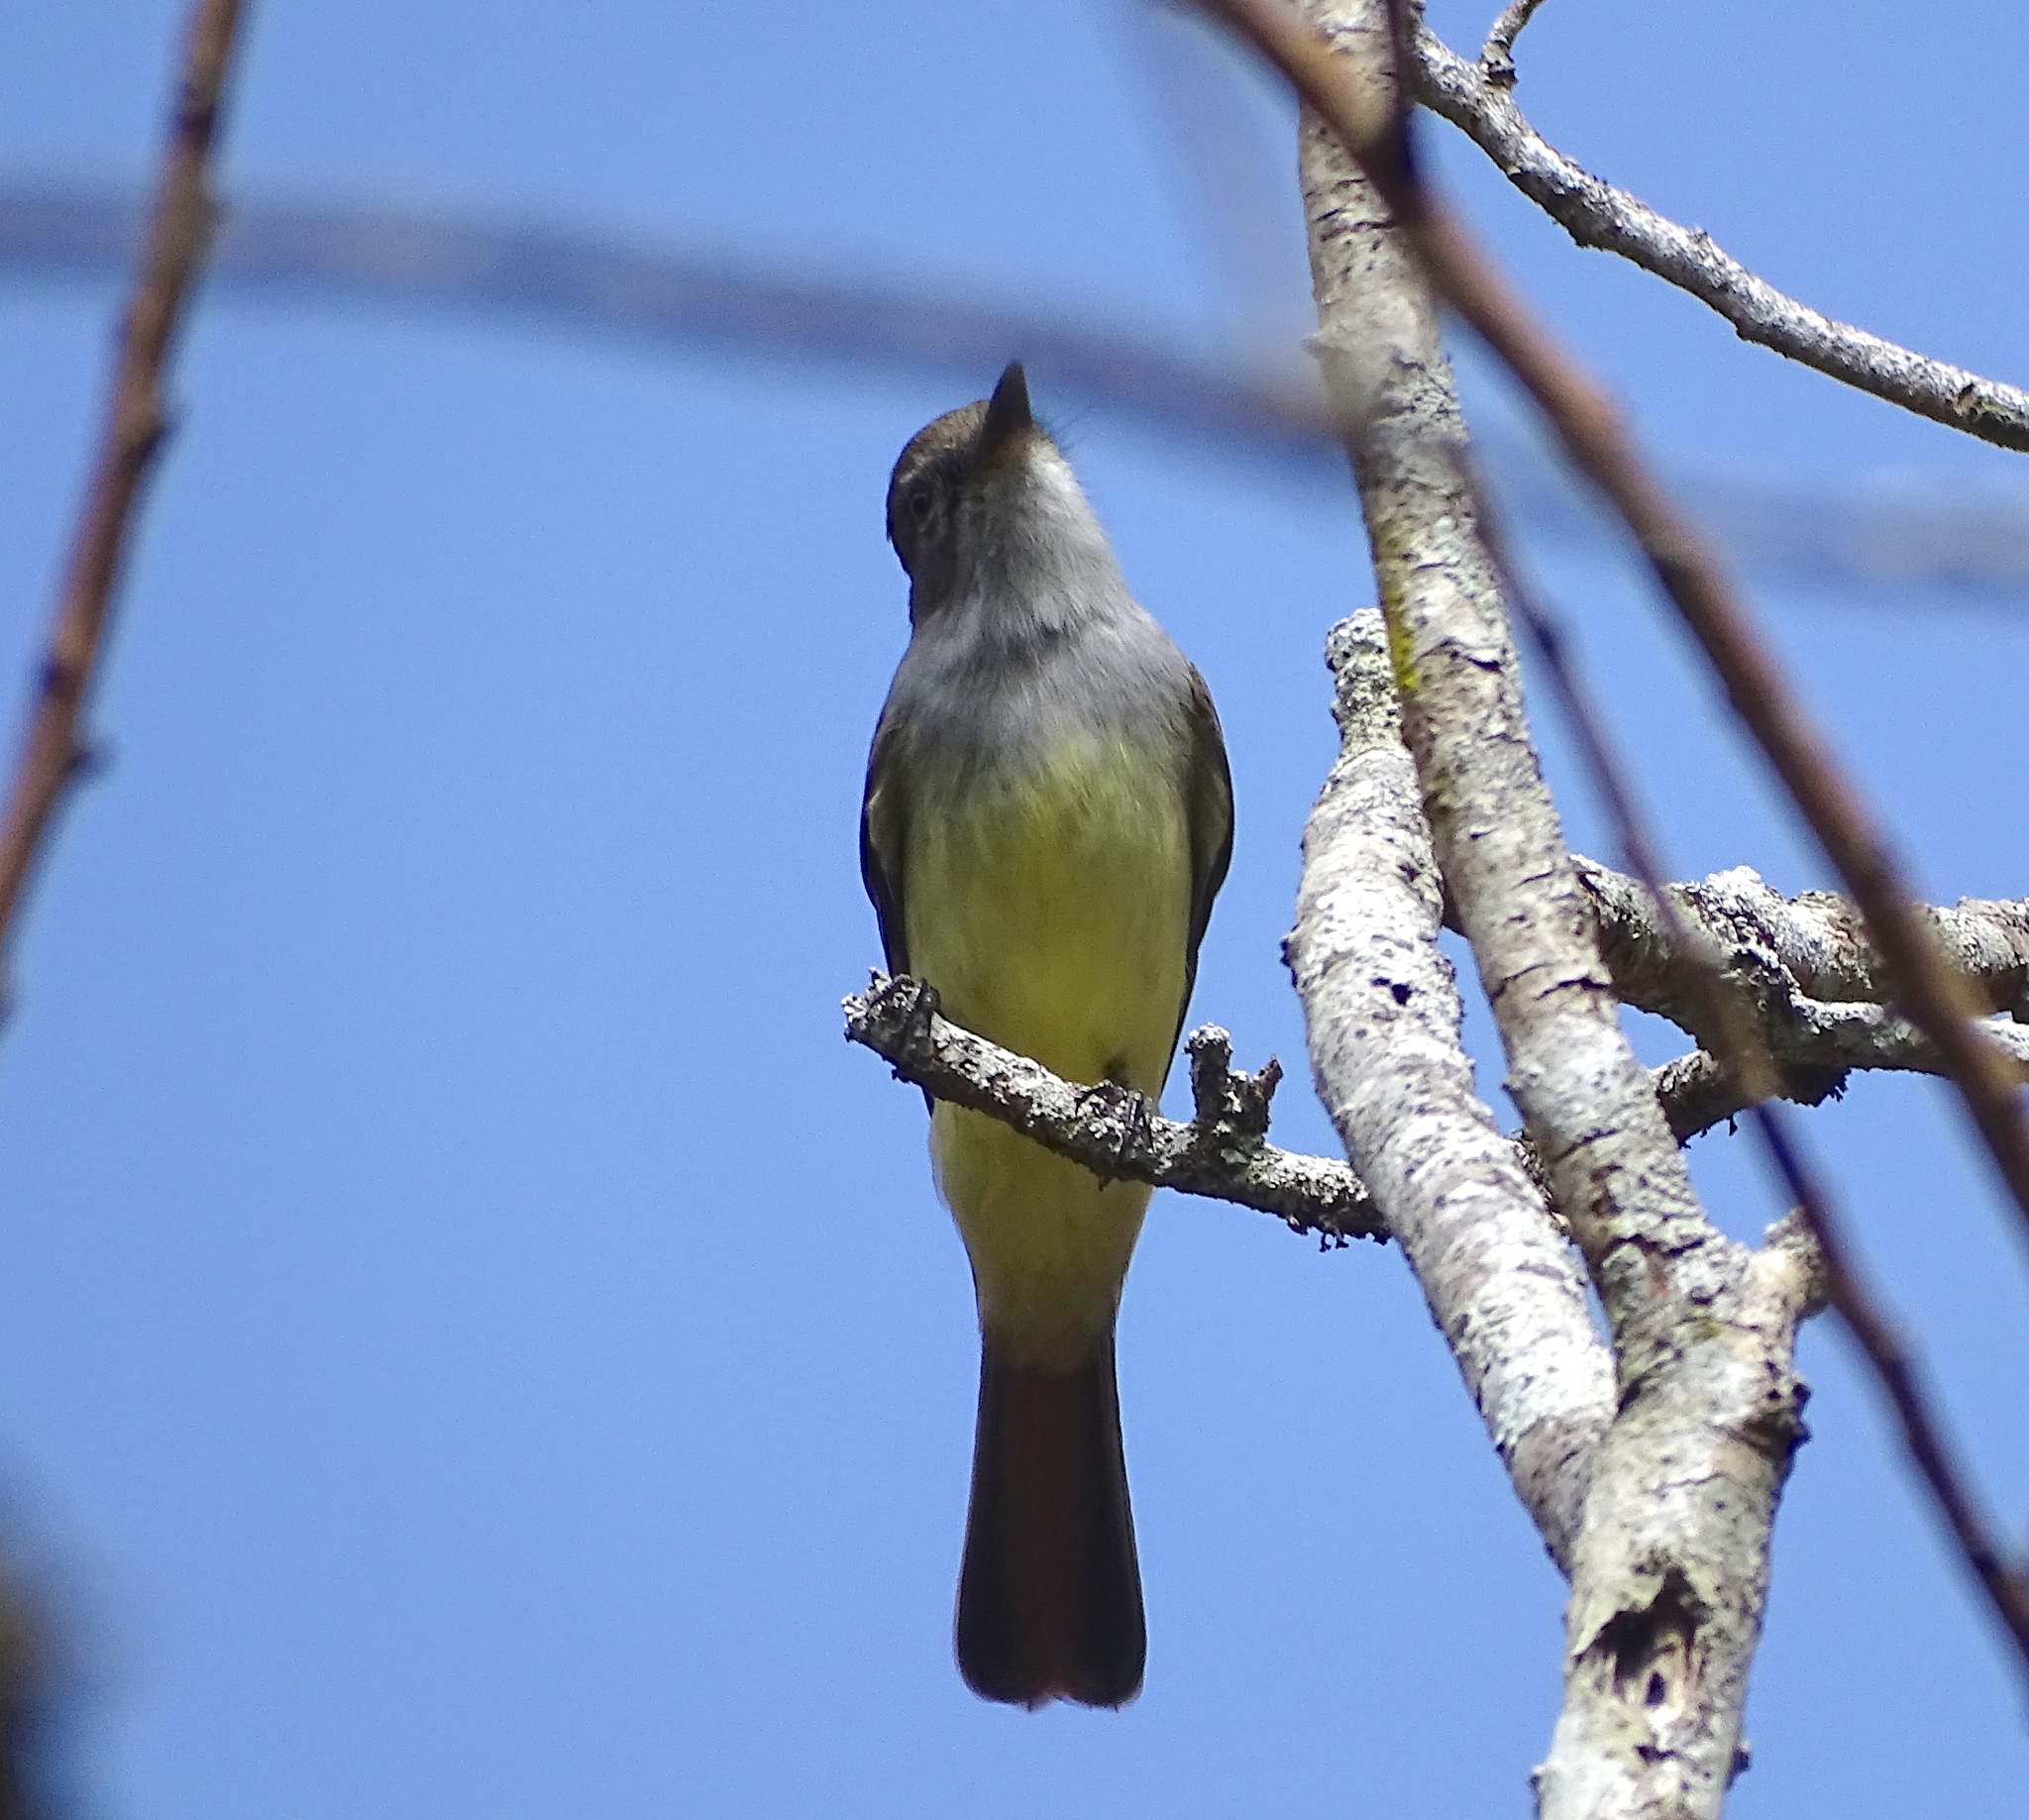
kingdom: Animalia
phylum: Chordata
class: Aves
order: Passeriformes
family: Tyrannidae
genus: Myiarchus
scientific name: Myiarchus tyrannulus
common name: Brown-crested flycatcher
